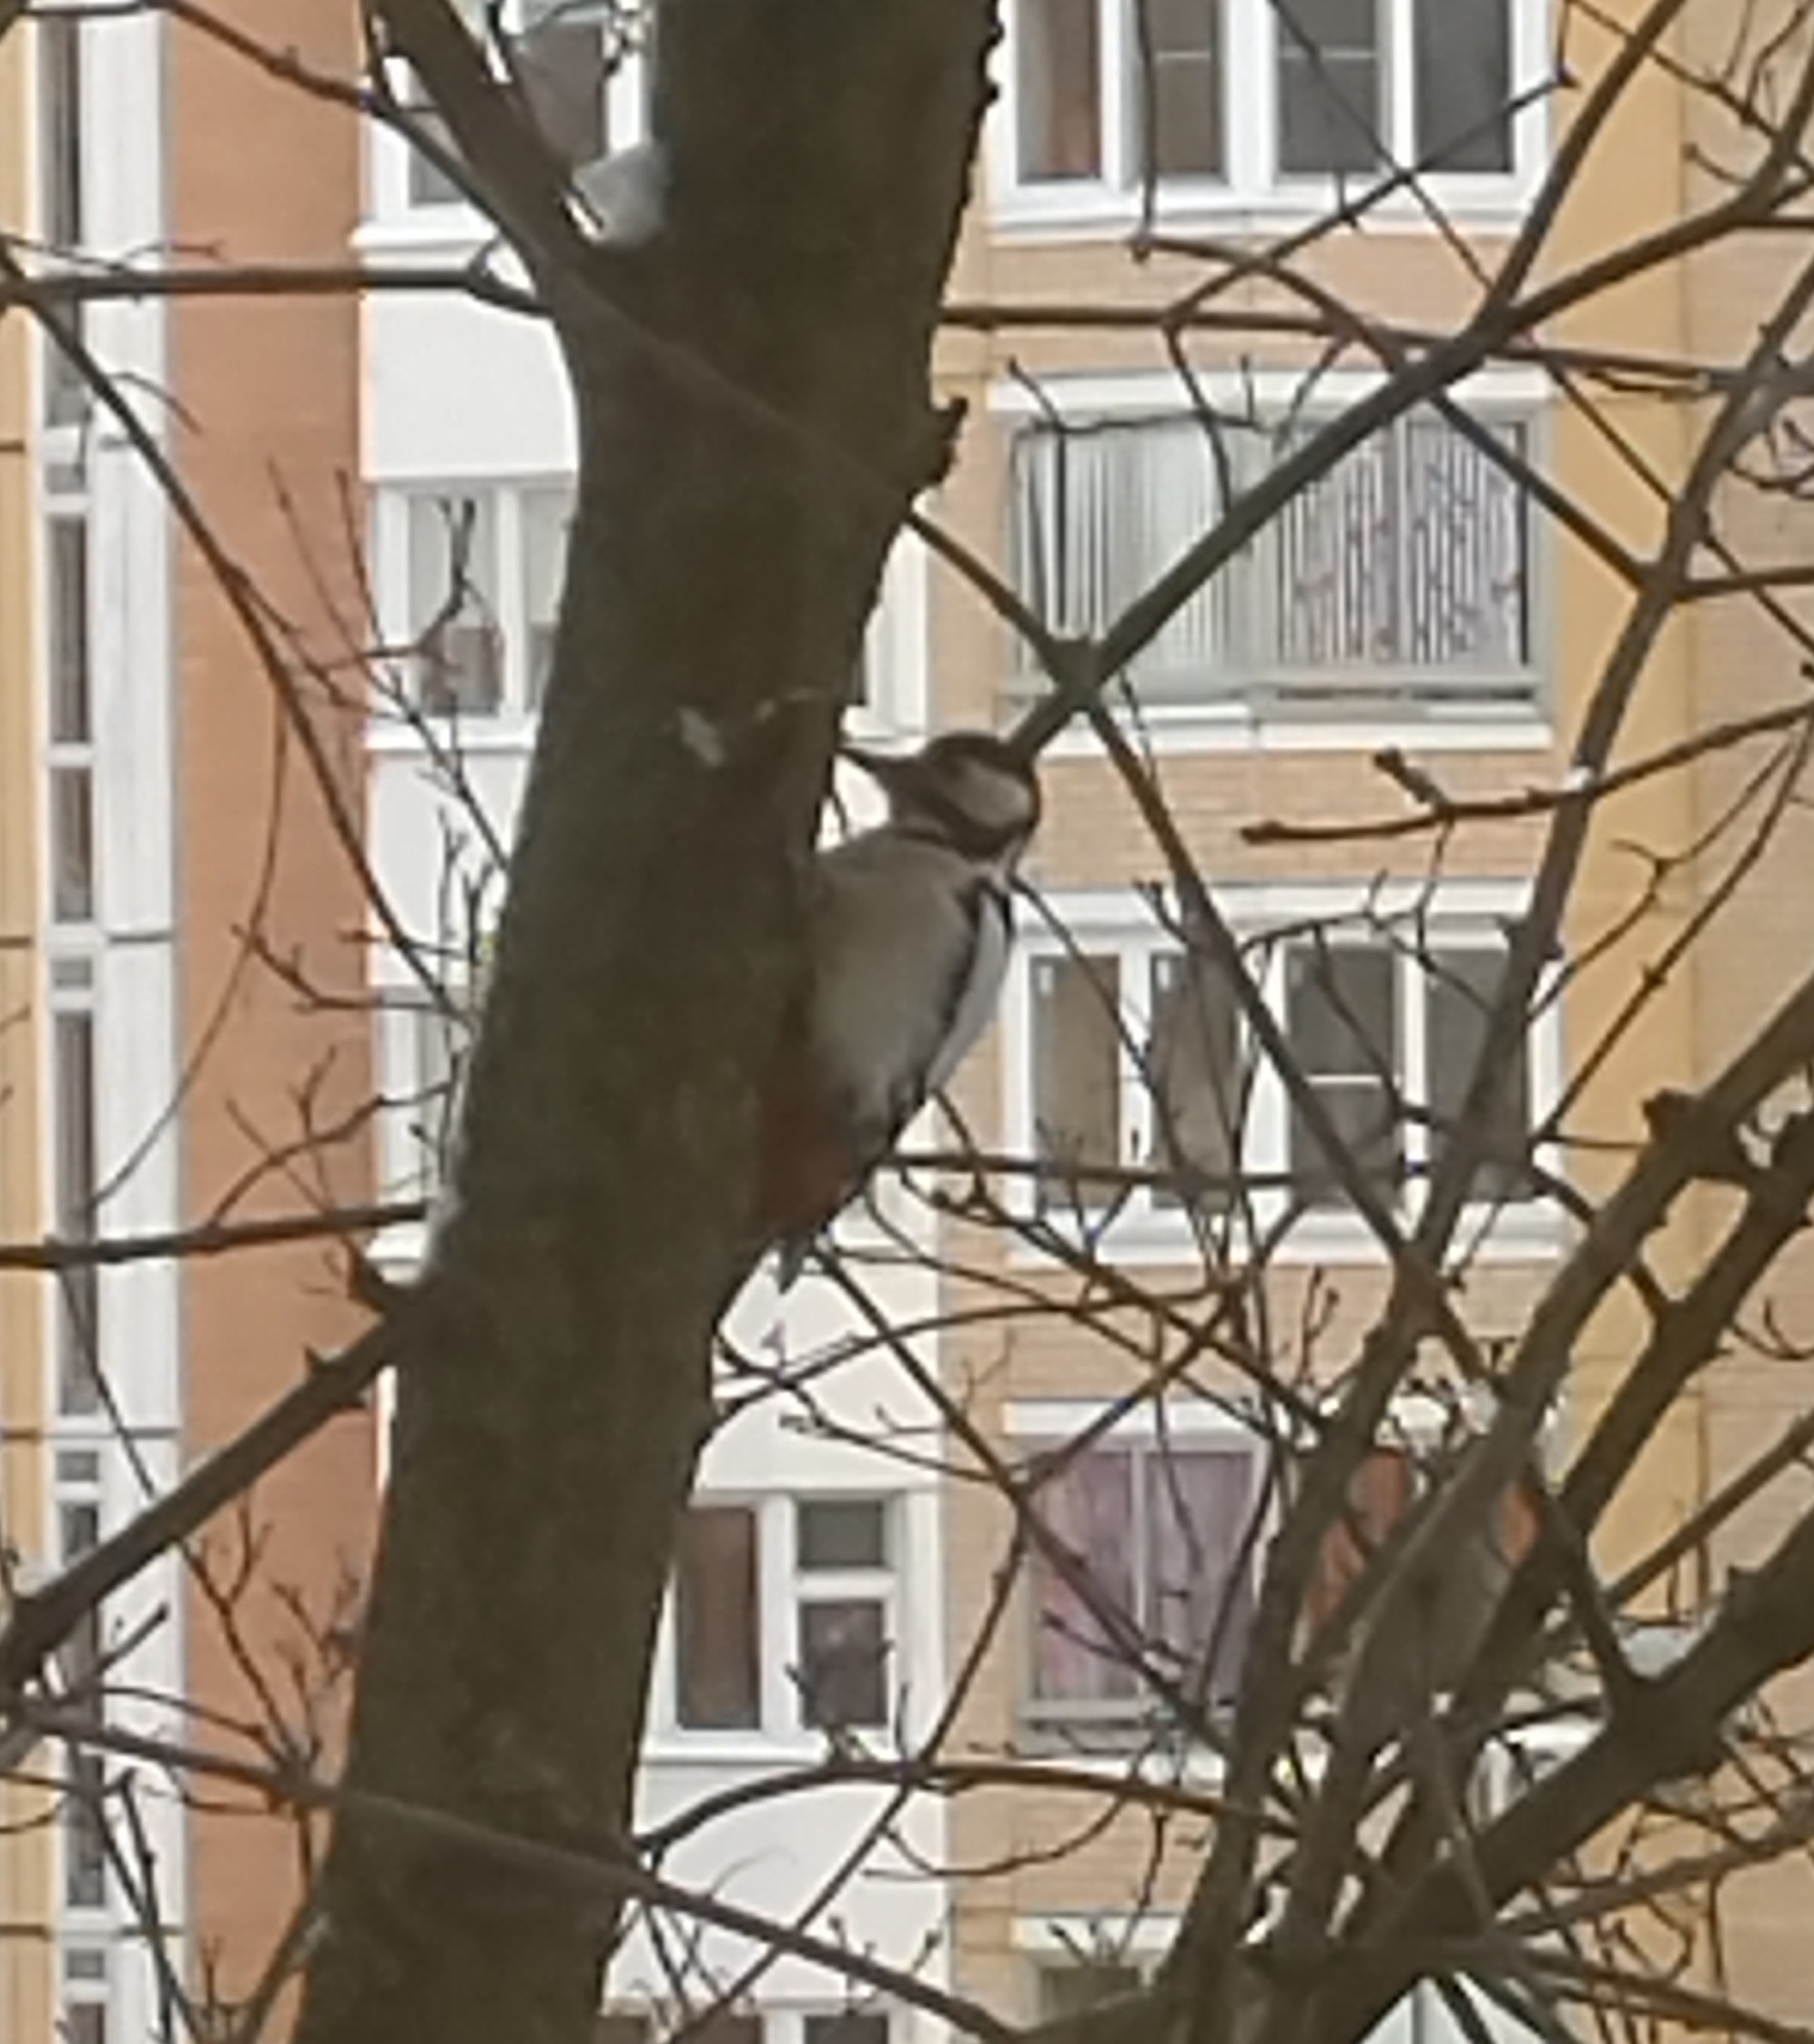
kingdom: Animalia
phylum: Chordata
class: Aves
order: Piciformes
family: Picidae
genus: Dendrocopos
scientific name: Dendrocopos major
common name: Great spotted woodpecker
